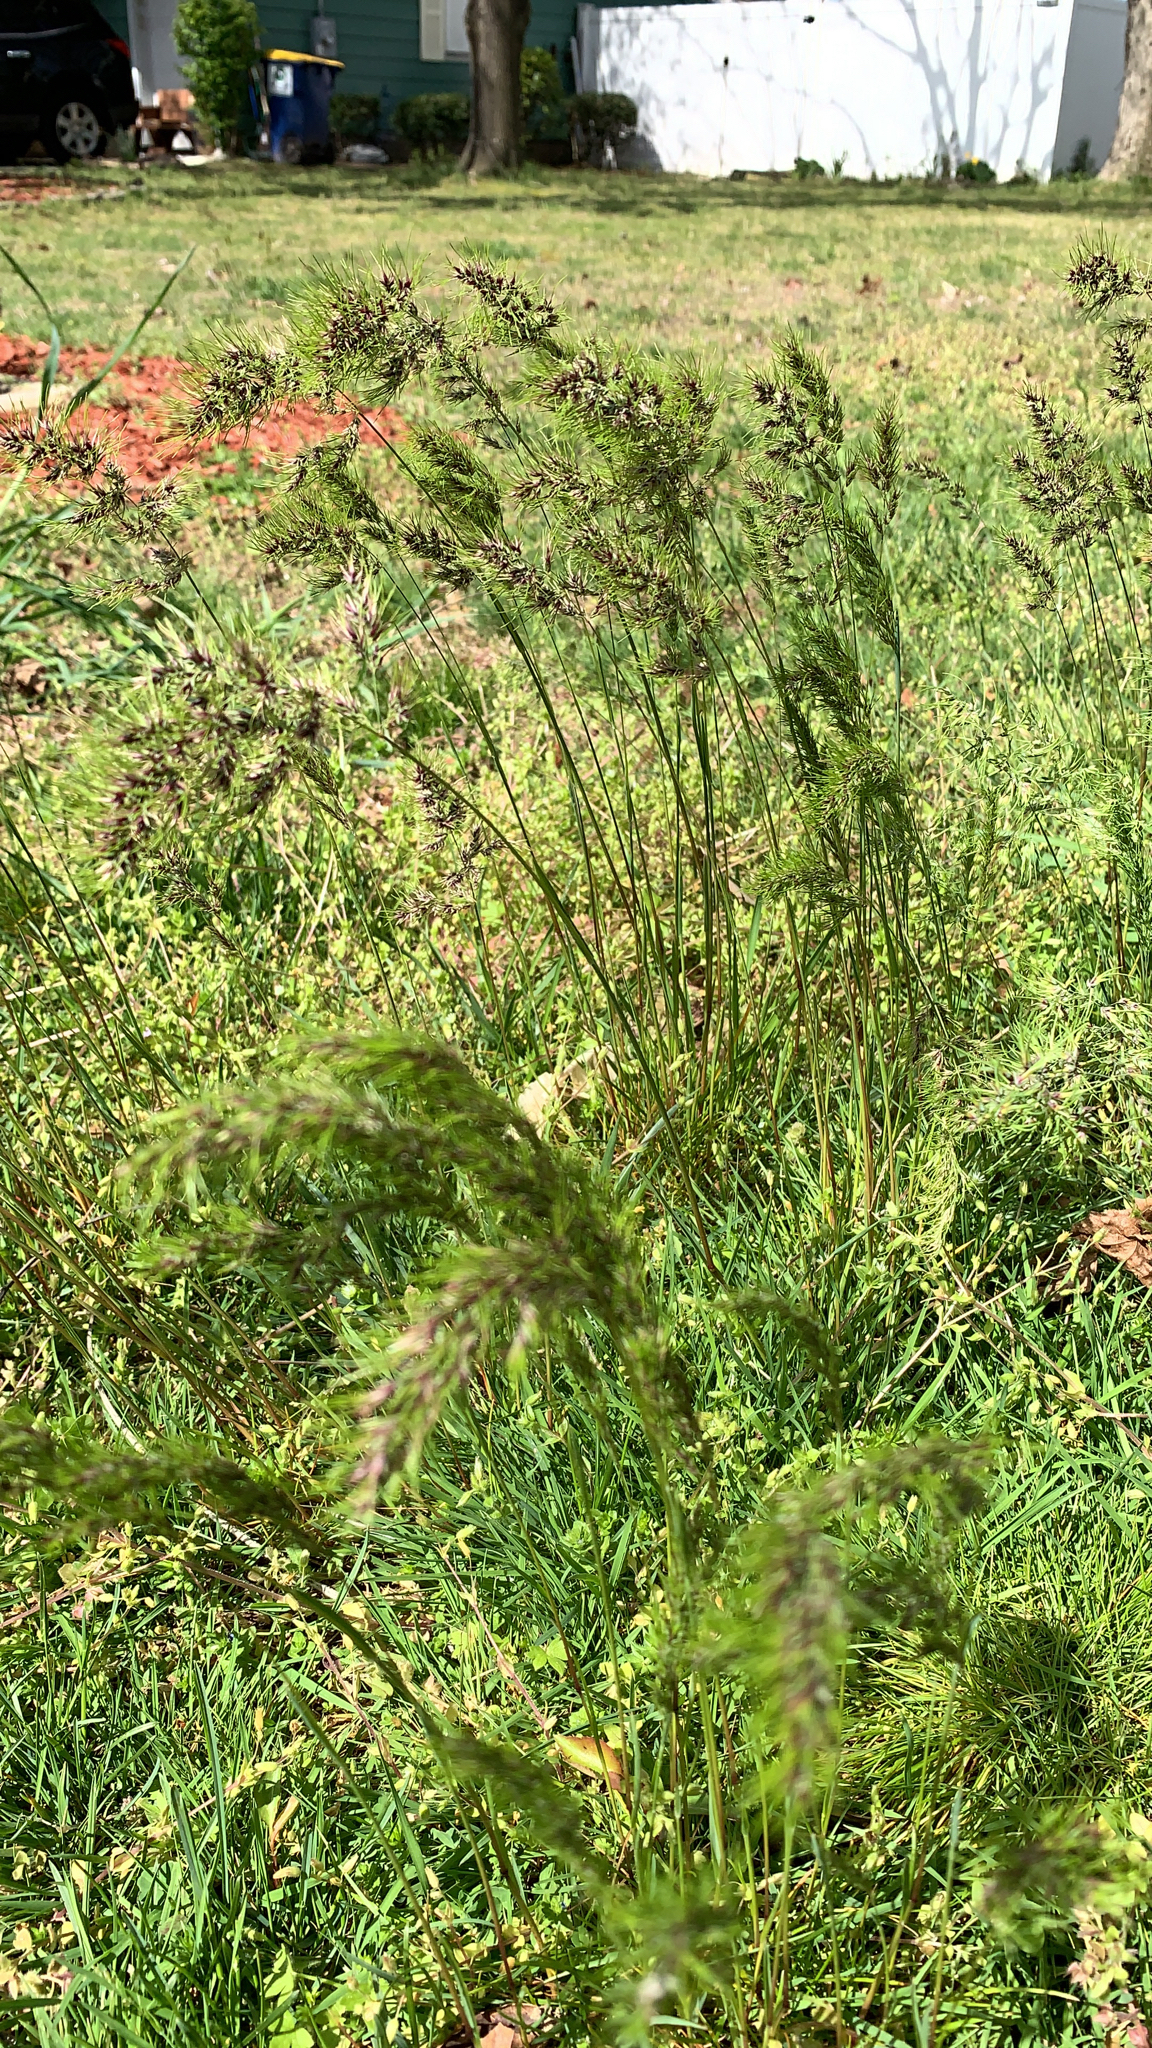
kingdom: Plantae
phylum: Tracheophyta
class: Liliopsida
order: Poales
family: Poaceae
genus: Poa
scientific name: Poa bulbosa
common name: Bulbous bluegrass
